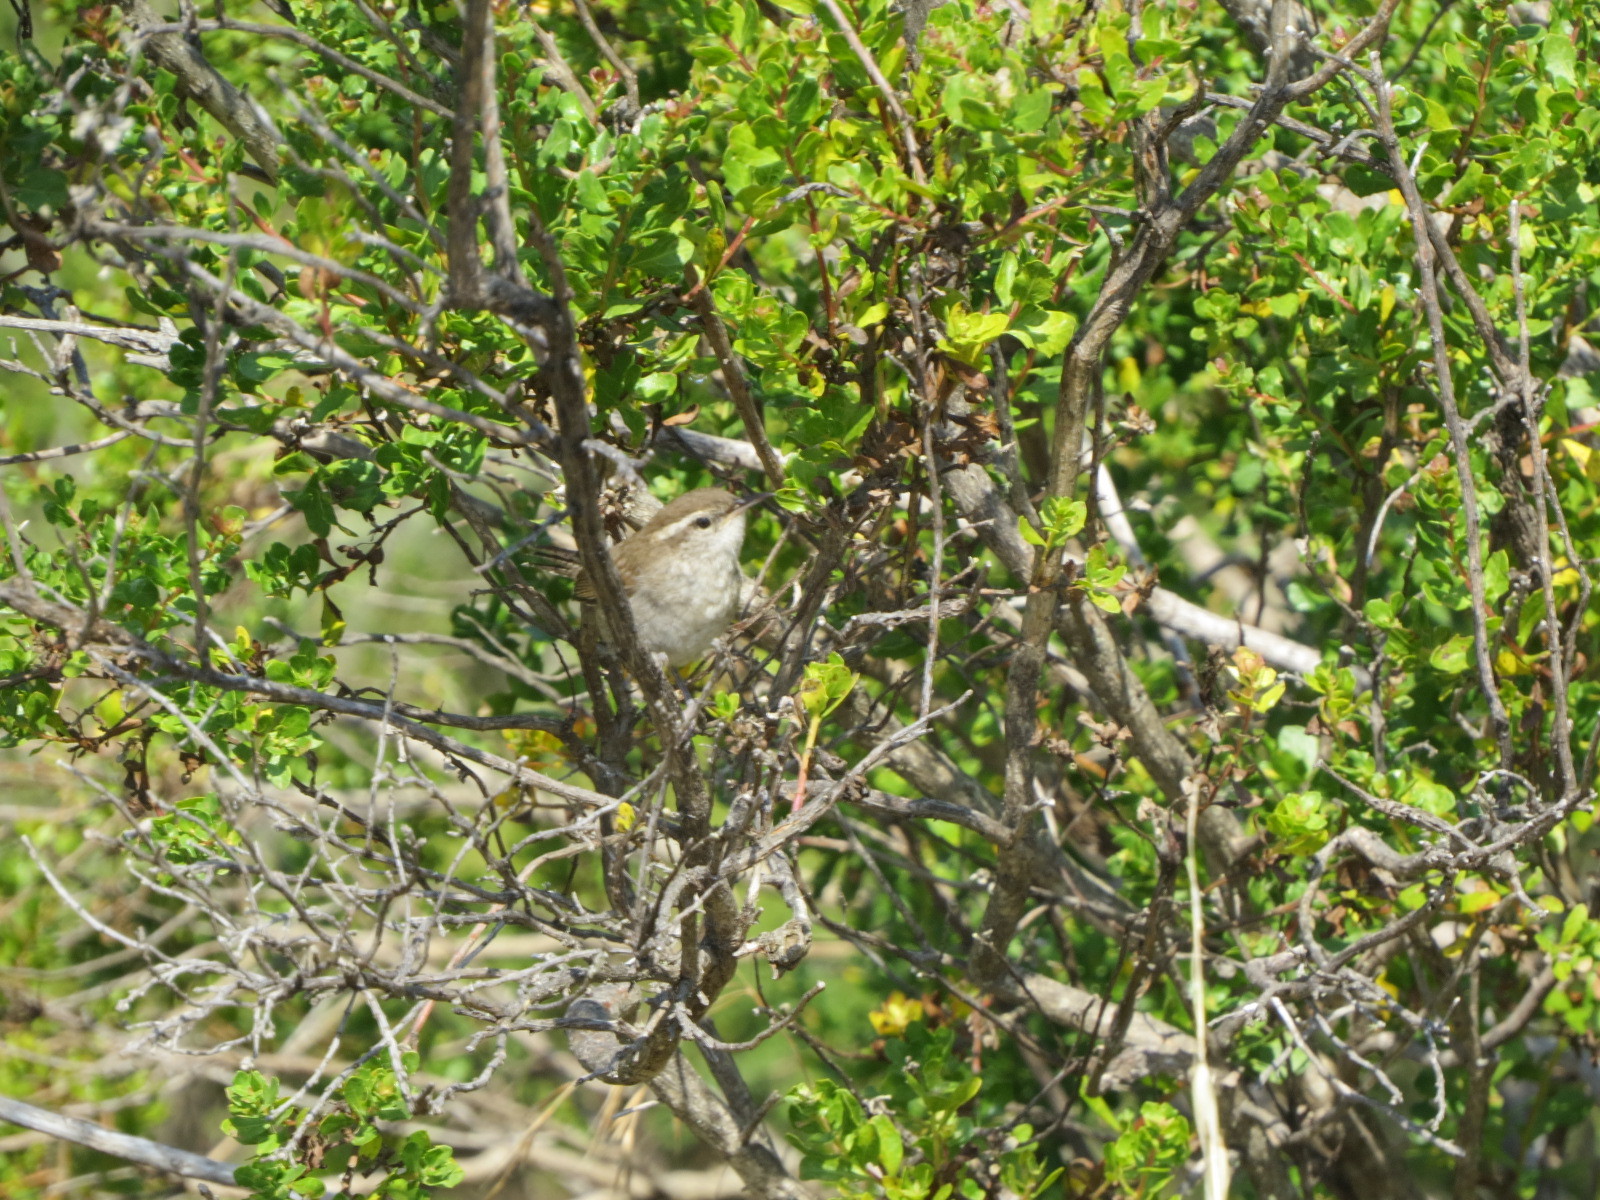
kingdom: Animalia
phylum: Chordata
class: Aves
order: Passeriformes
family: Troglodytidae
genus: Thryomanes
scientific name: Thryomanes bewickii
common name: Bewick's wren
